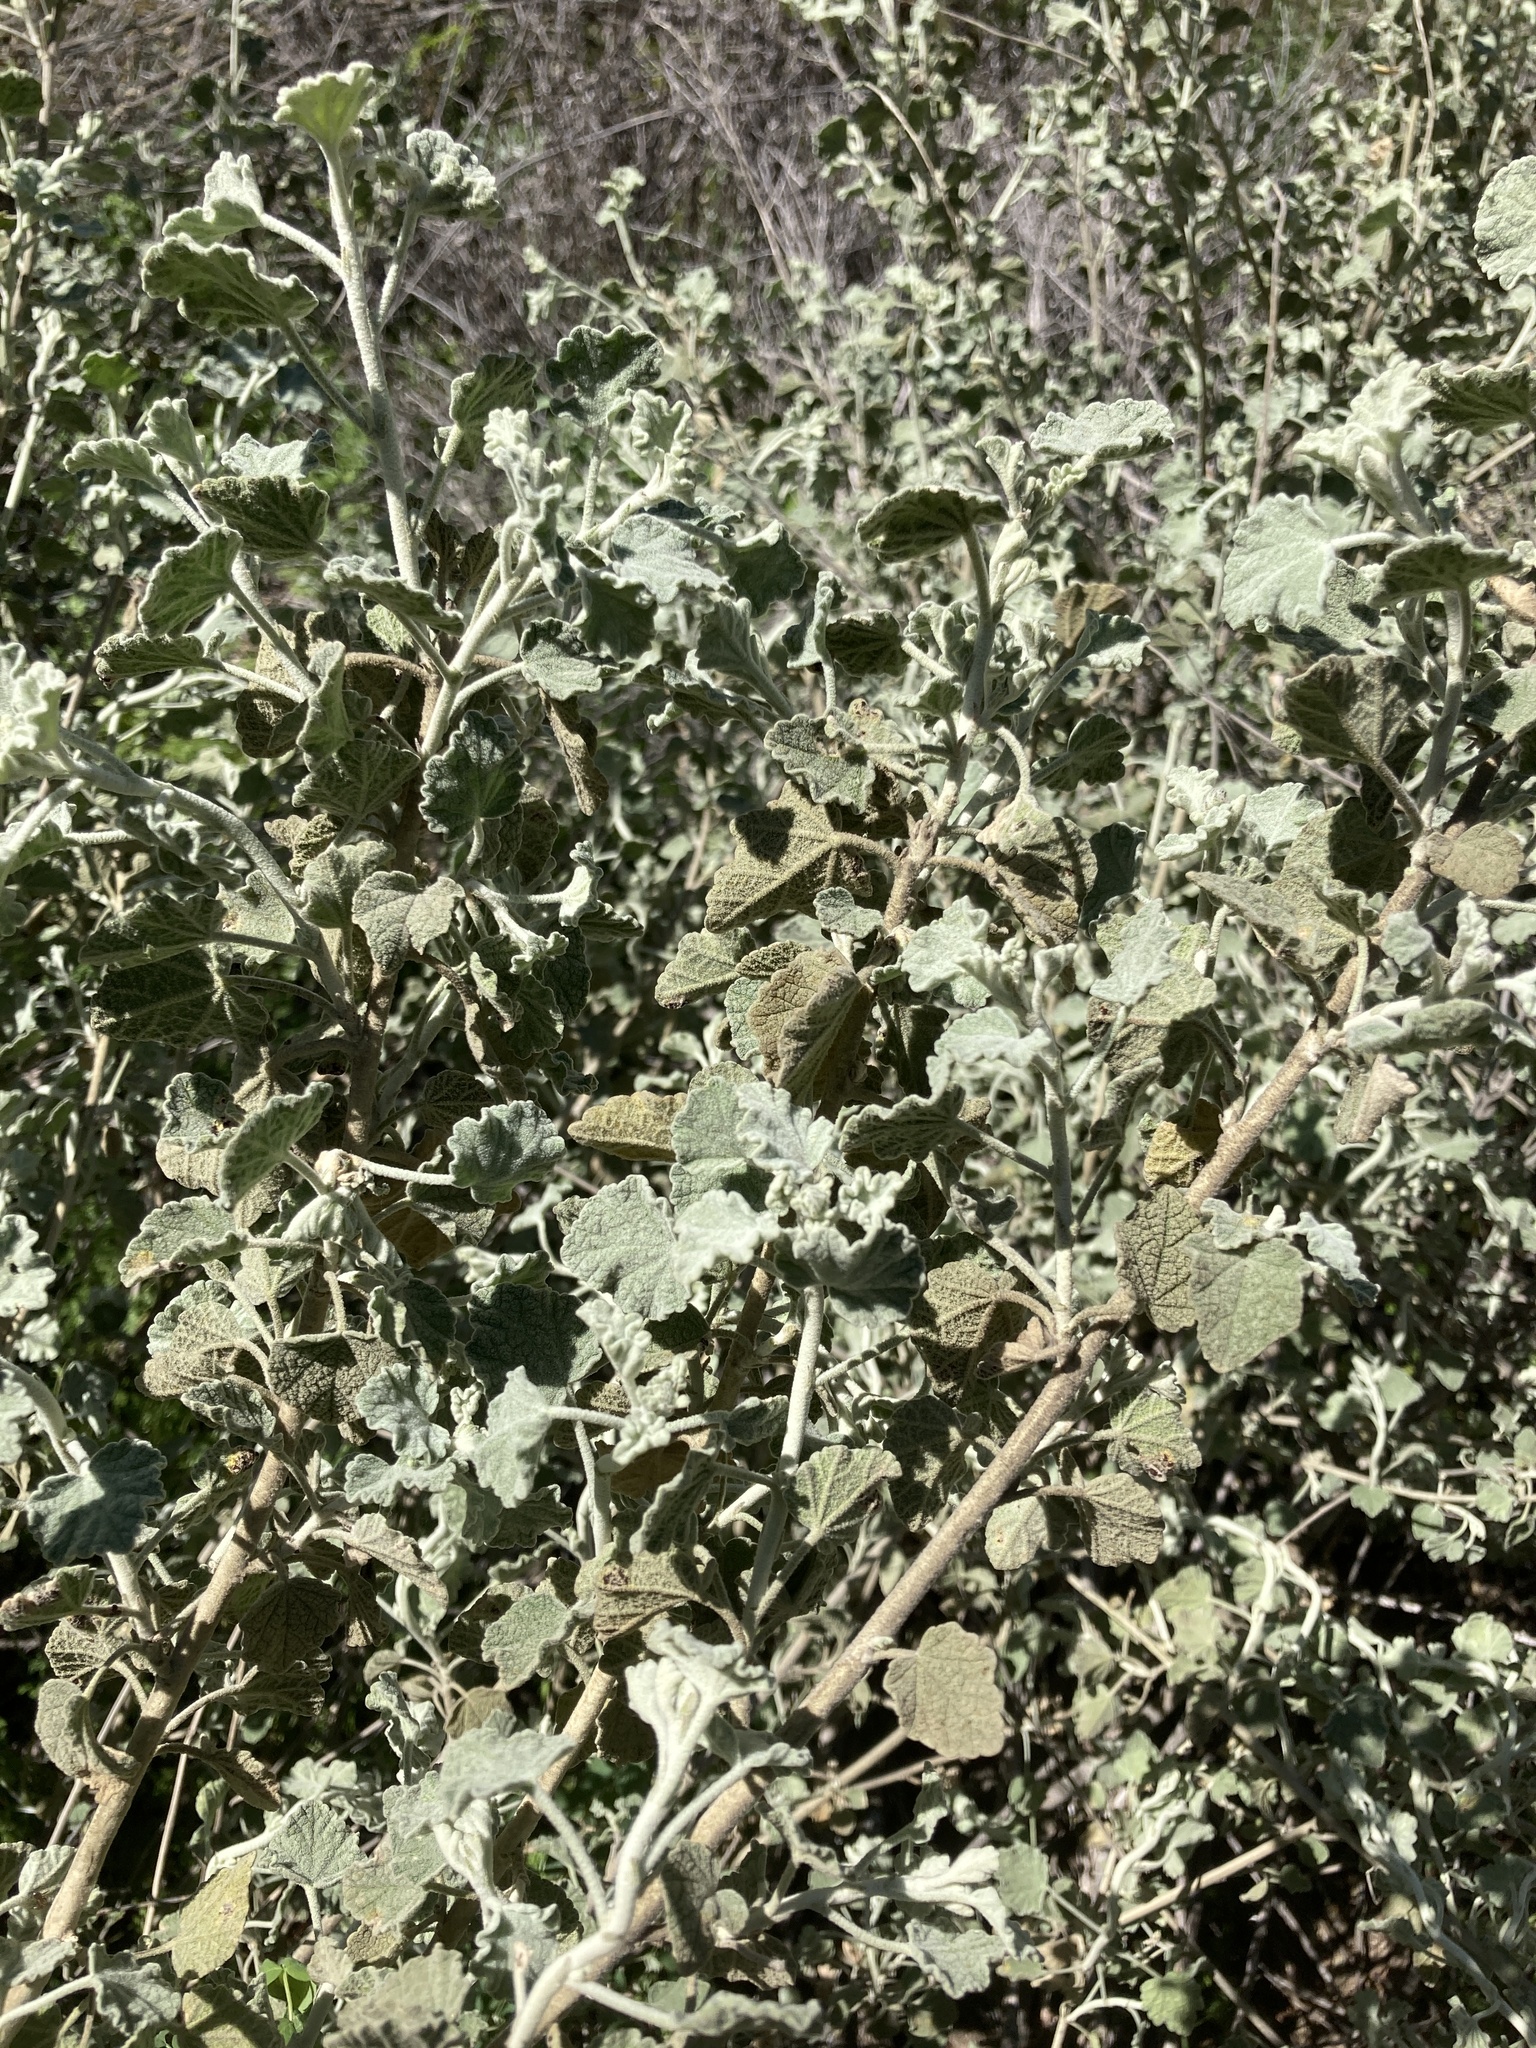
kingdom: Plantae
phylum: Tracheophyta
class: Magnoliopsida
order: Malvales
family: Malvaceae
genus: Malacothamnus
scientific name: Malacothamnus jonesii
